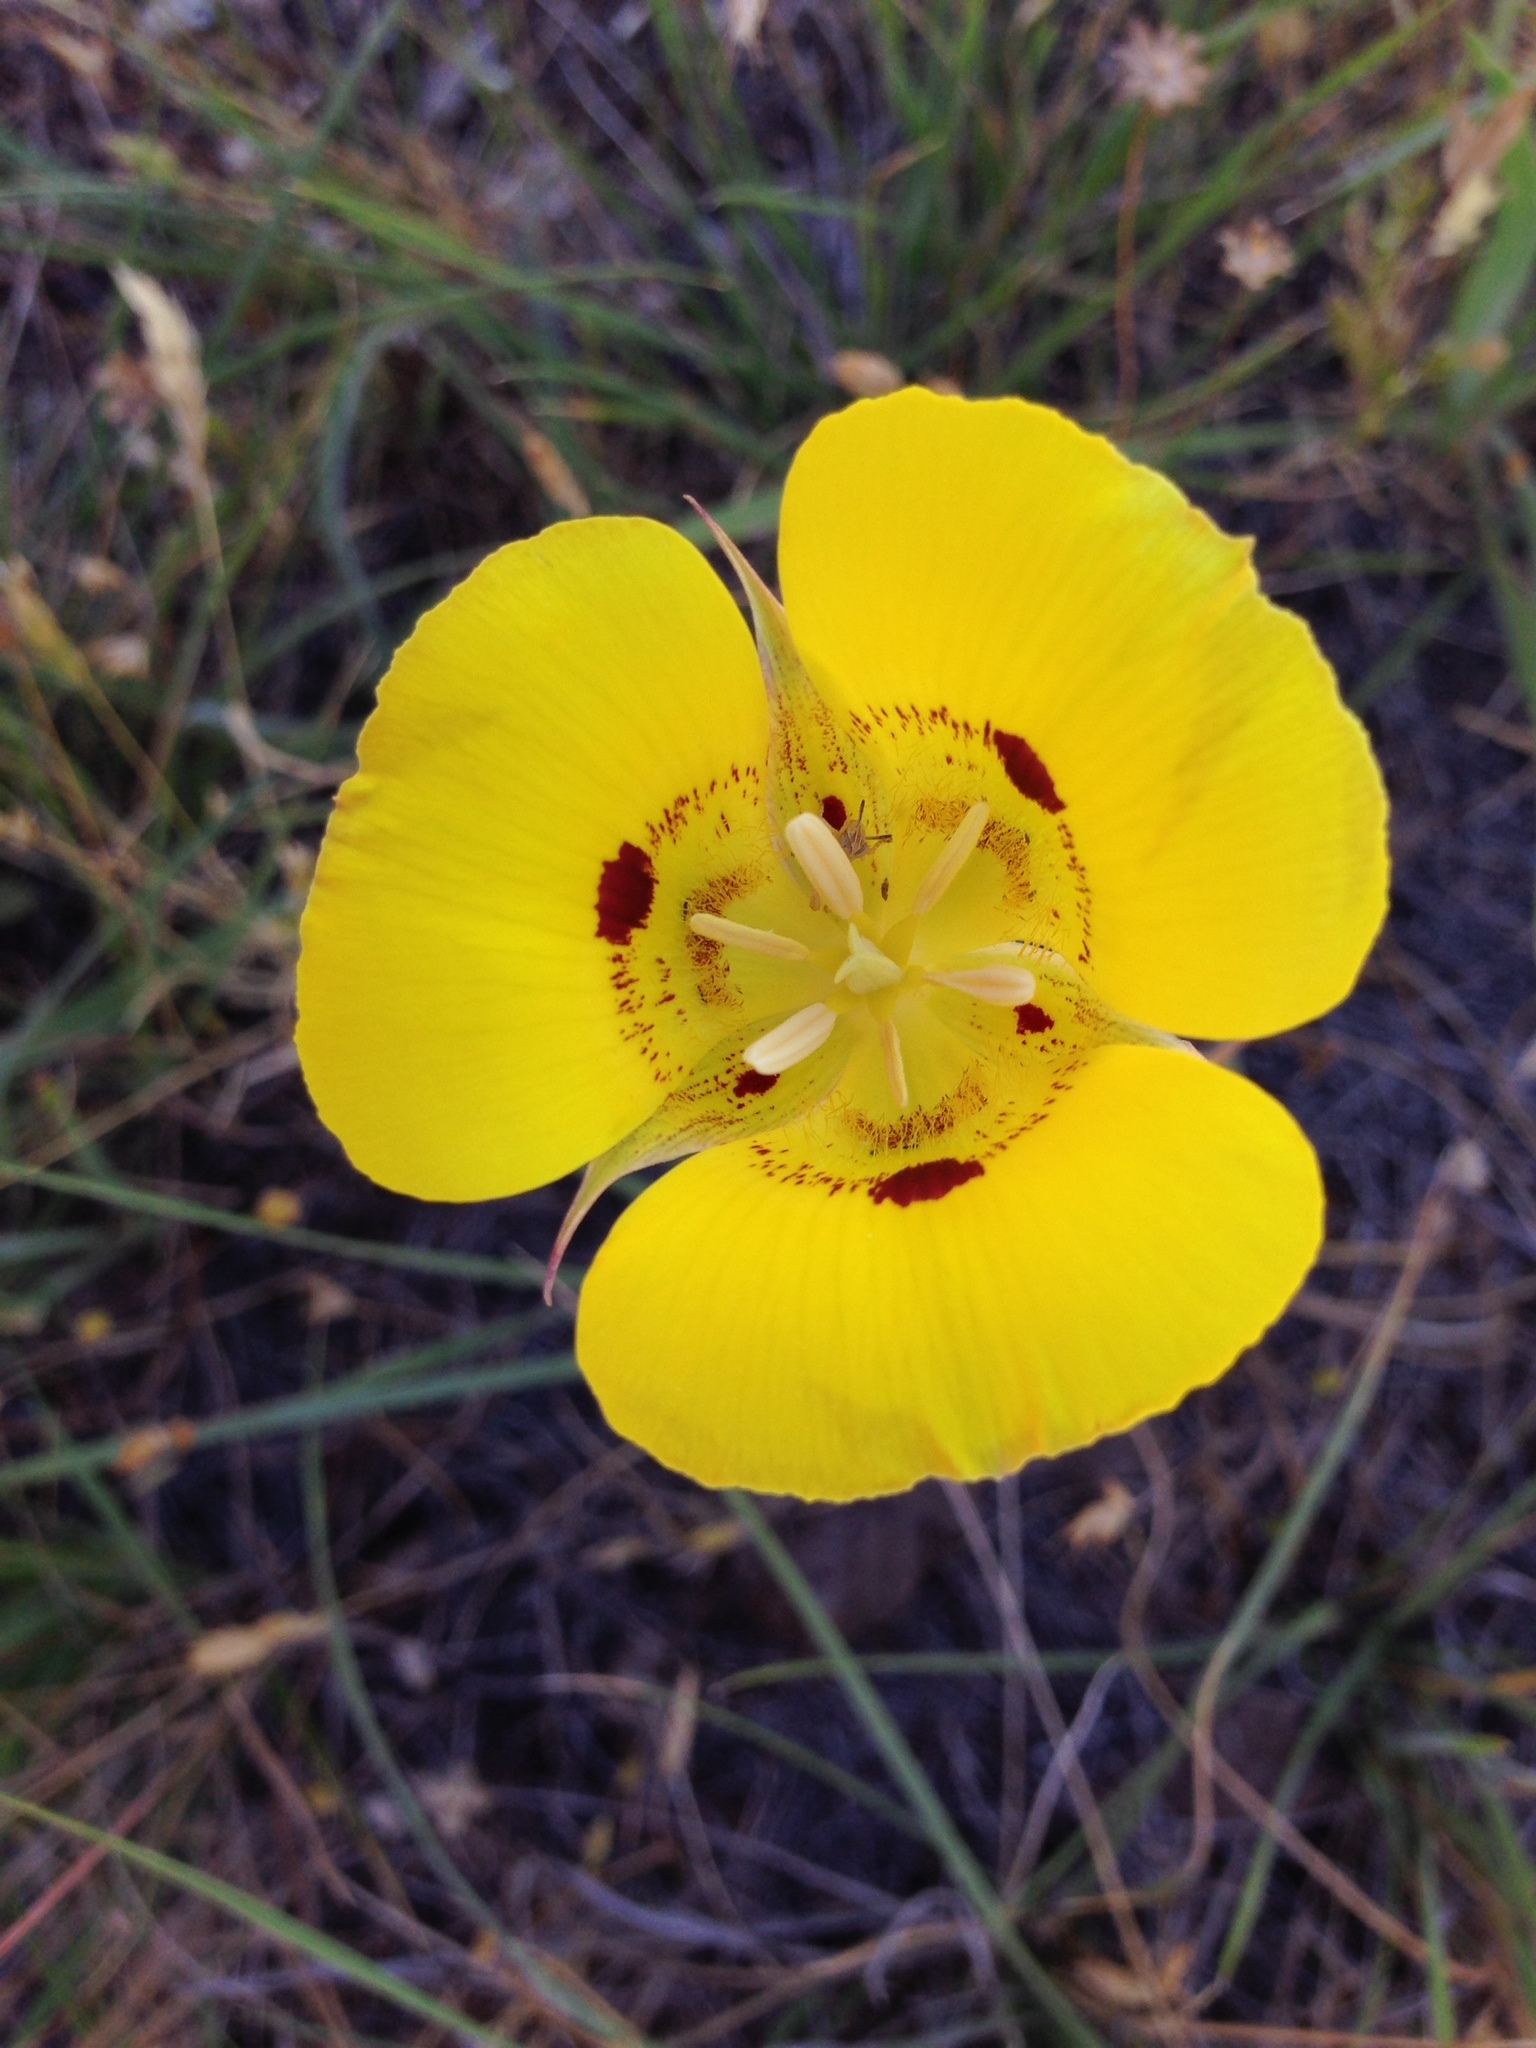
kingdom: Plantae
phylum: Tracheophyta
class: Liliopsida
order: Liliales
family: Liliaceae
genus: Calochortus
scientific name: Calochortus luteus
